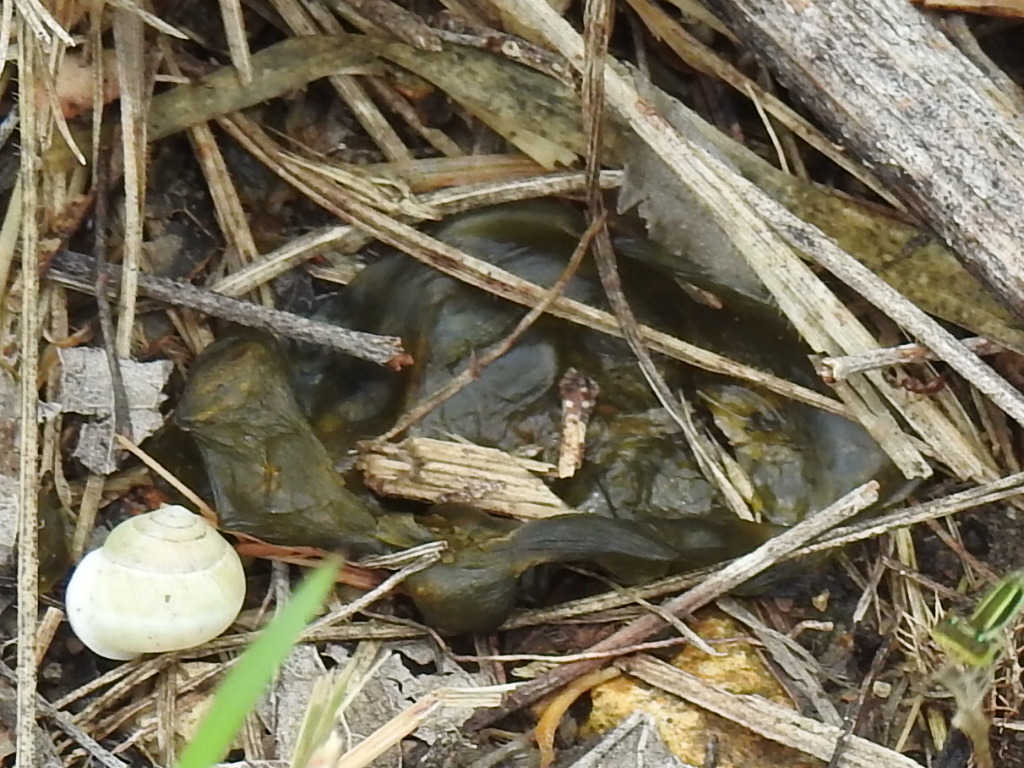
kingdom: Bacteria
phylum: Cyanobacteria
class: Cyanobacteriia
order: Cyanobacteriales
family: Nostocaceae
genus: Nostoc
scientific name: Nostoc commune
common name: Star jelly
